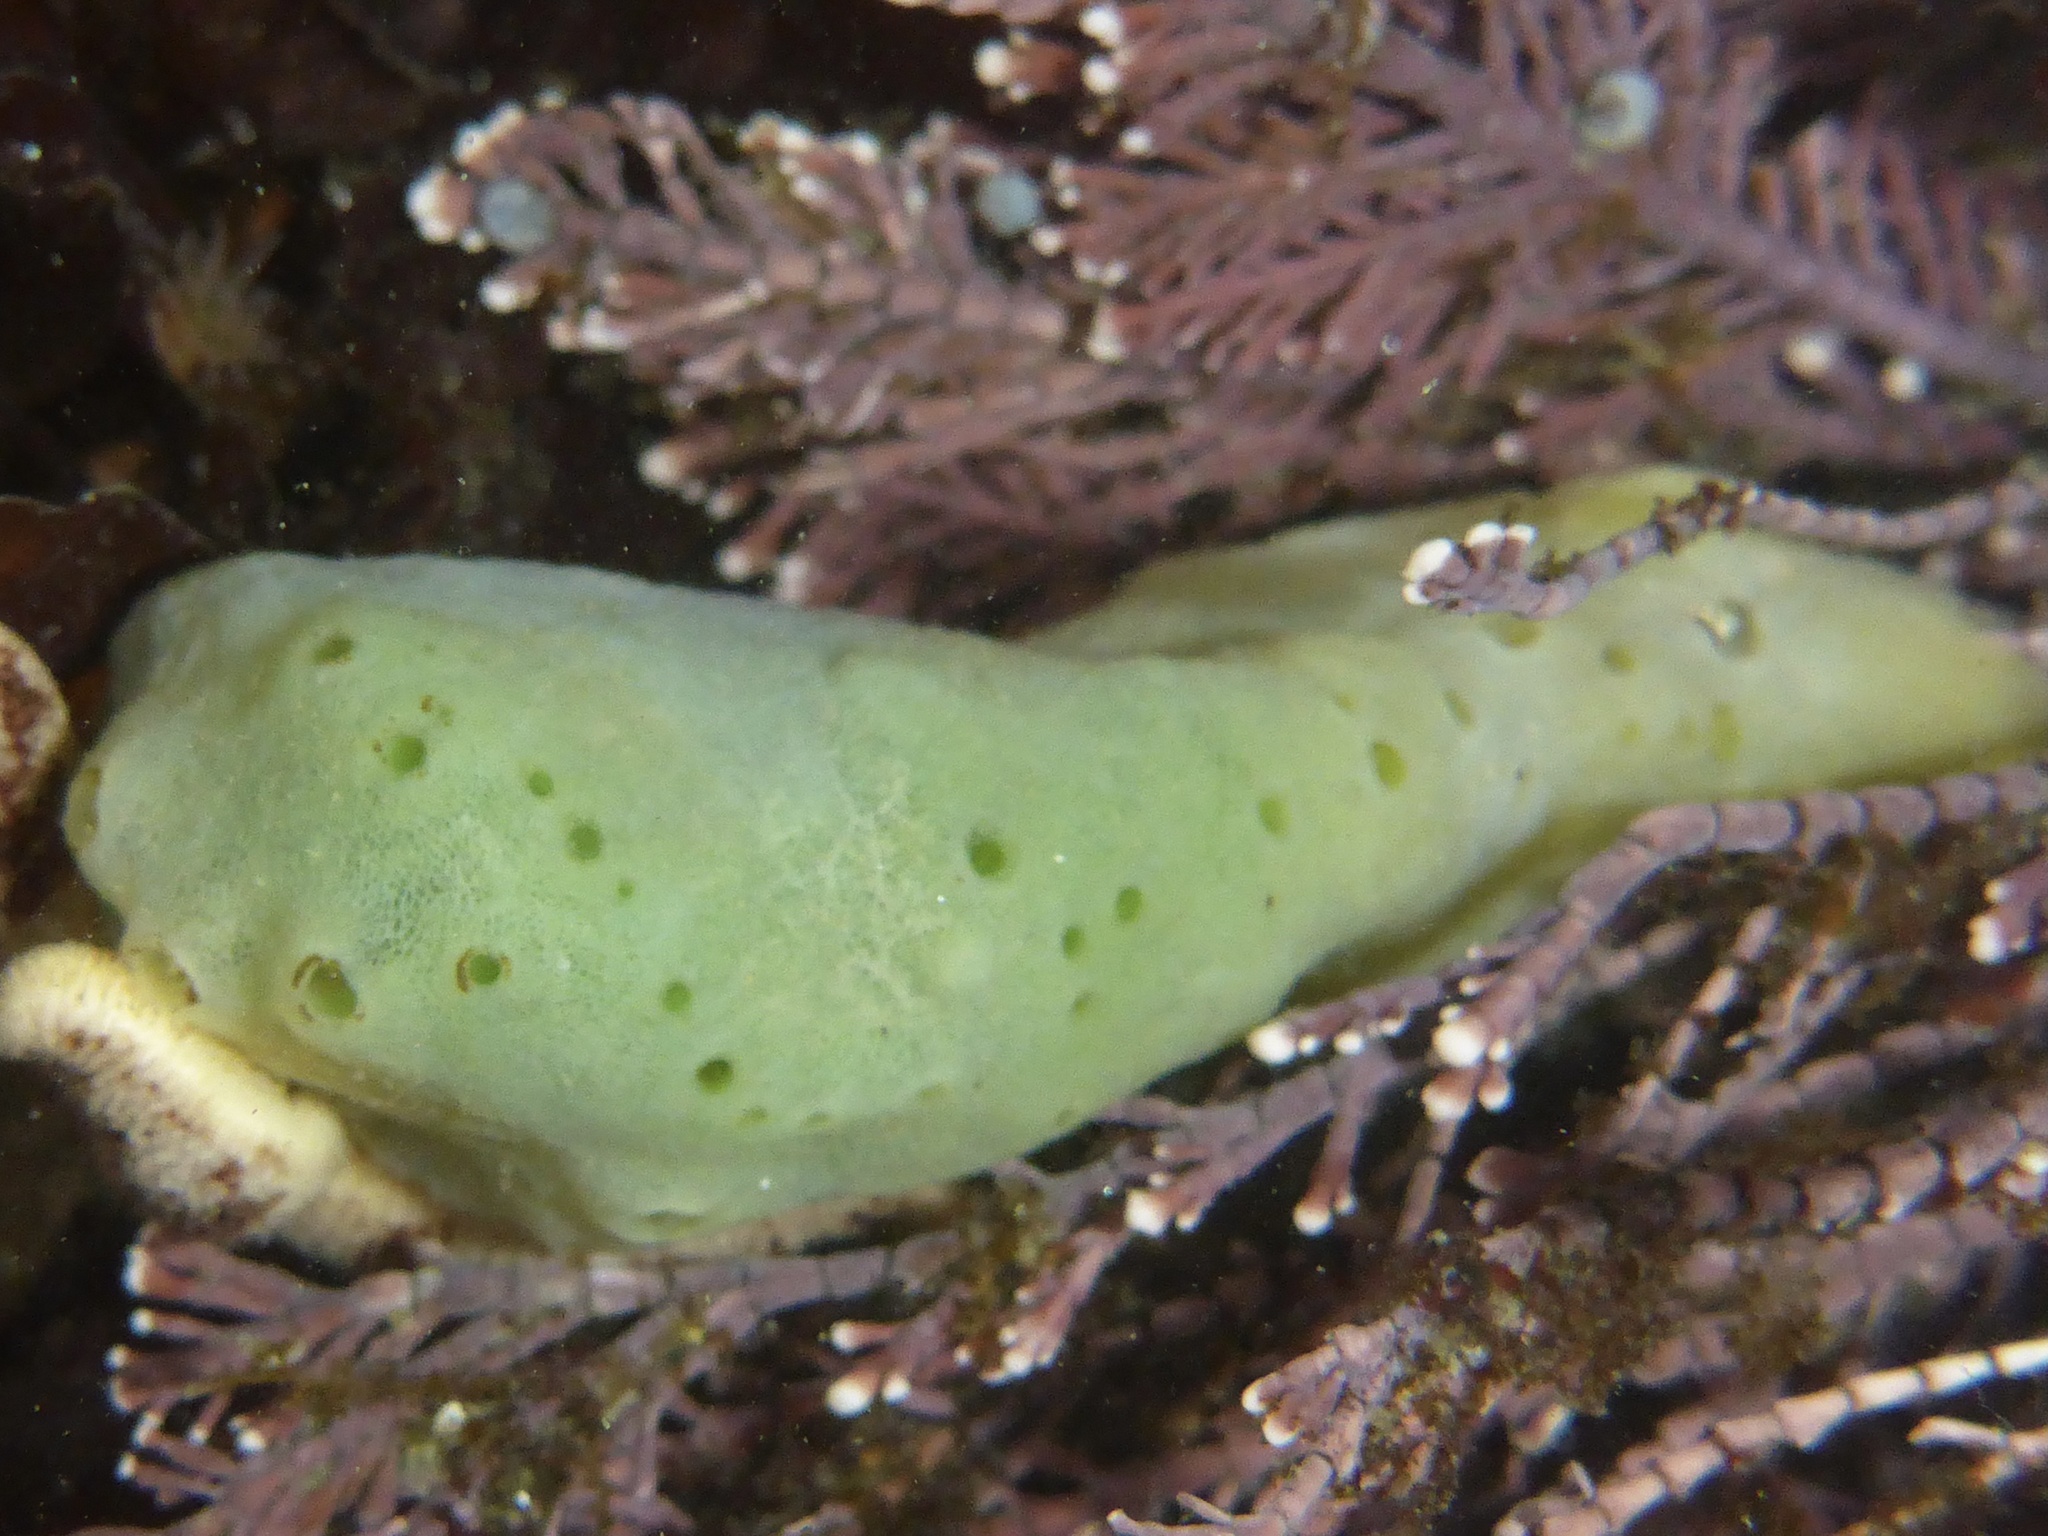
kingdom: Animalia
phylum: Porifera
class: Demospongiae
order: Suberitida
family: Halichondriidae
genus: Halichondria
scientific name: Halichondria panicea
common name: Breadcrumb sponge
